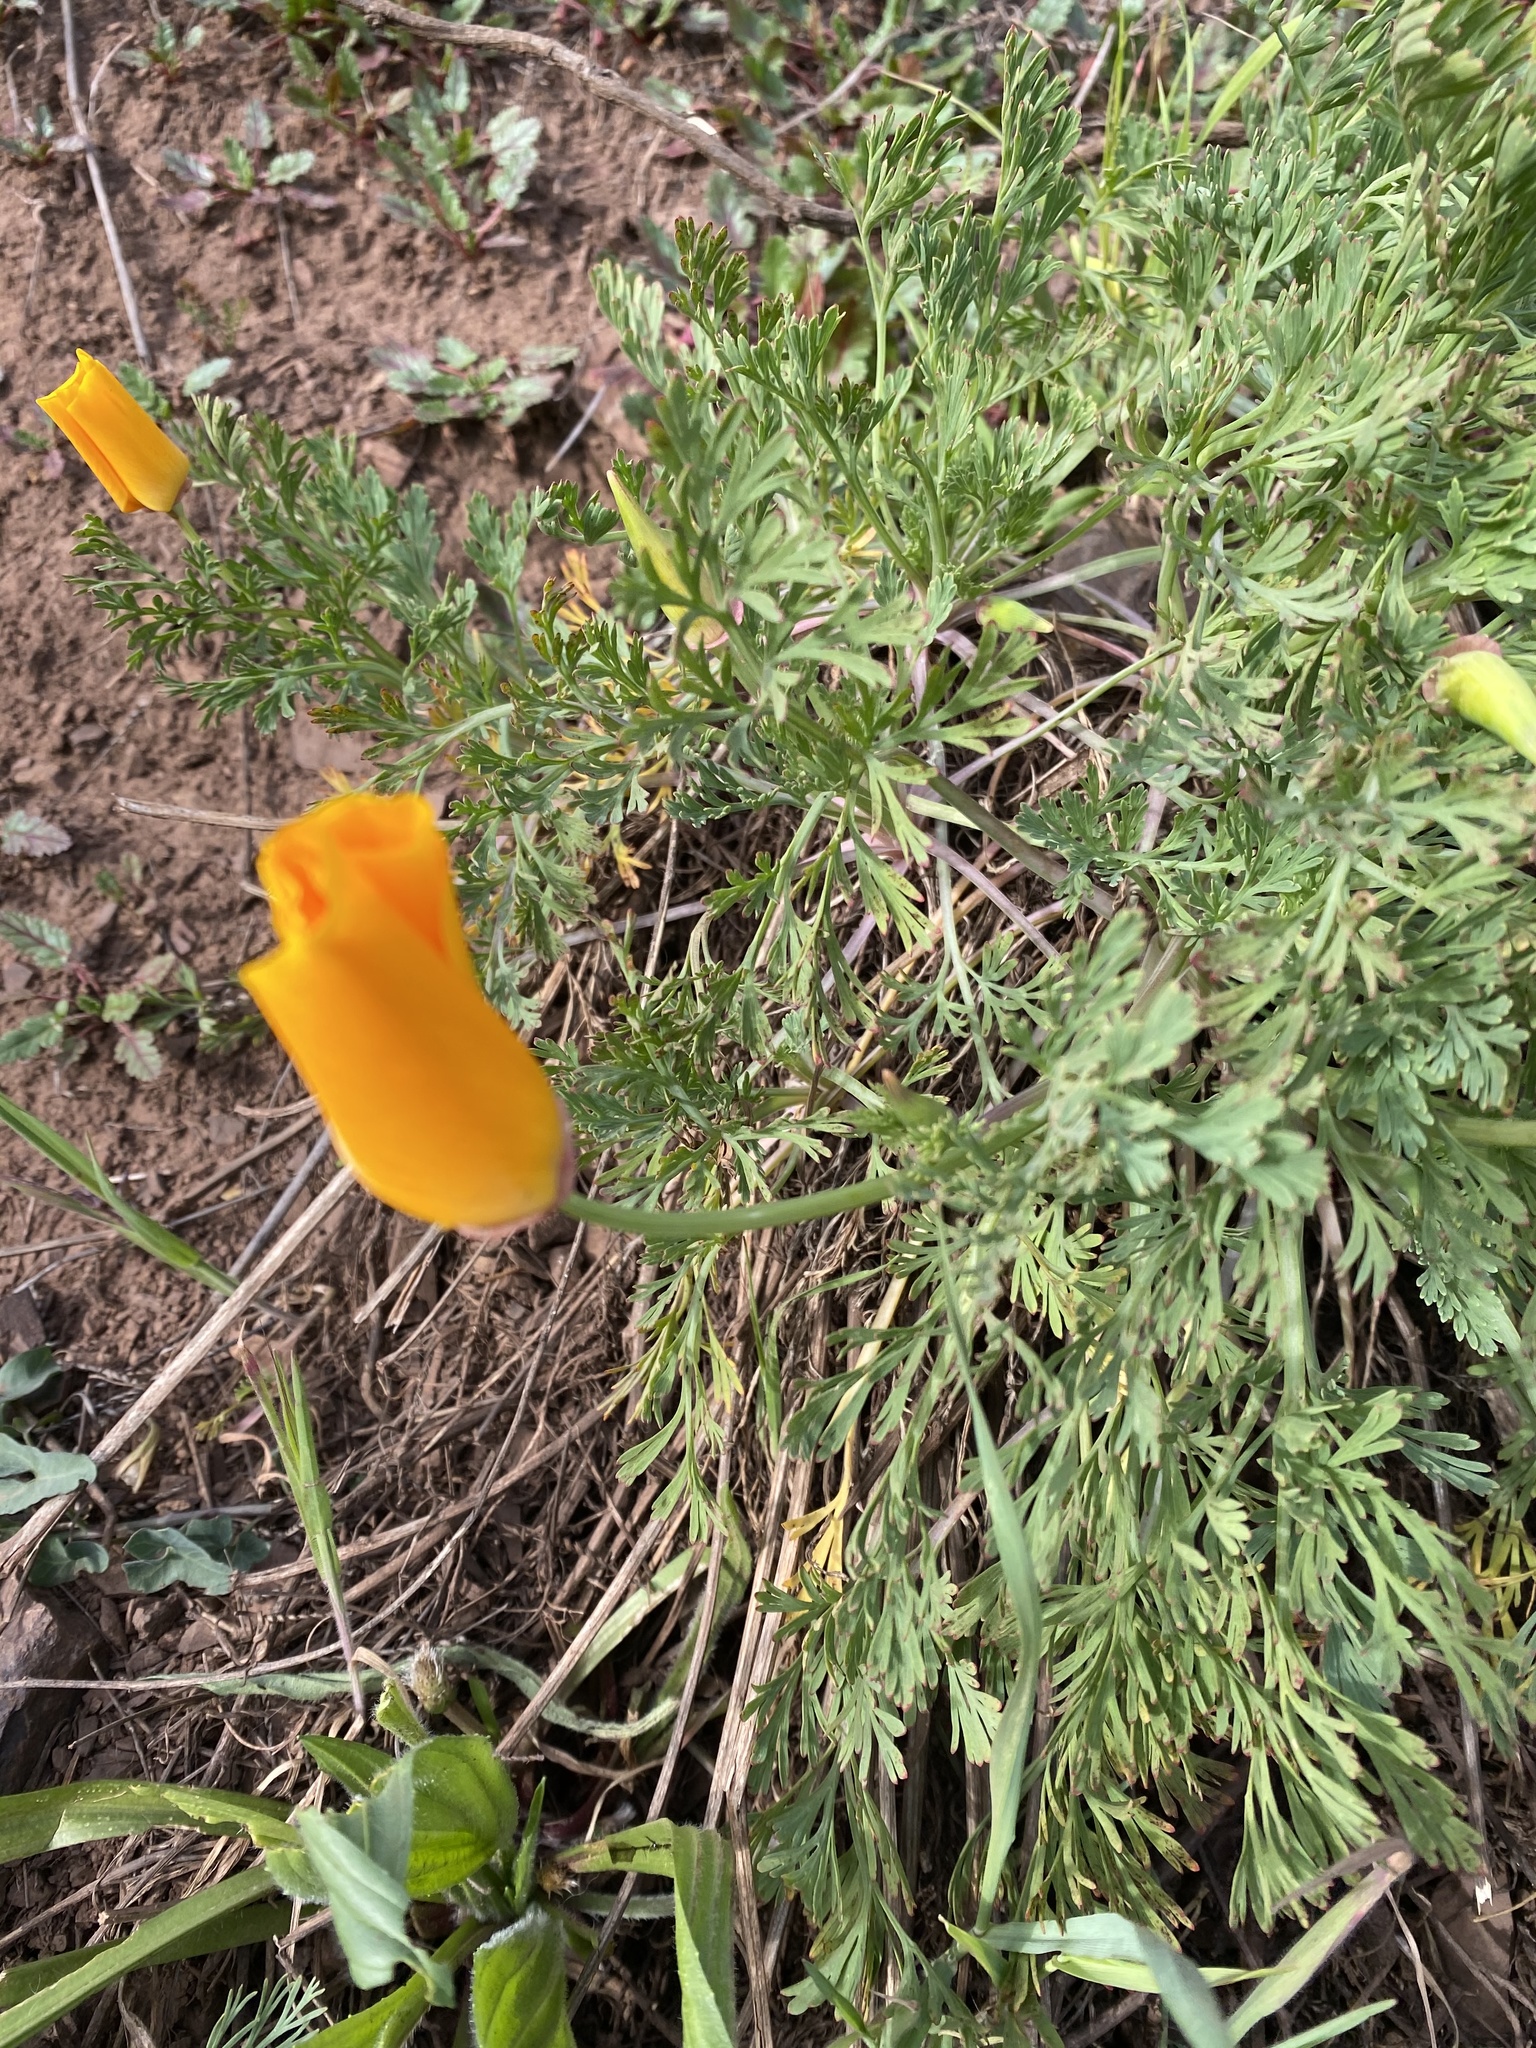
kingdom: Plantae
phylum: Tracheophyta
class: Magnoliopsida
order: Ranunculales
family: Papaveraceae
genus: Eschscholzia
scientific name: Eschscholzia californica
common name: California poppy
